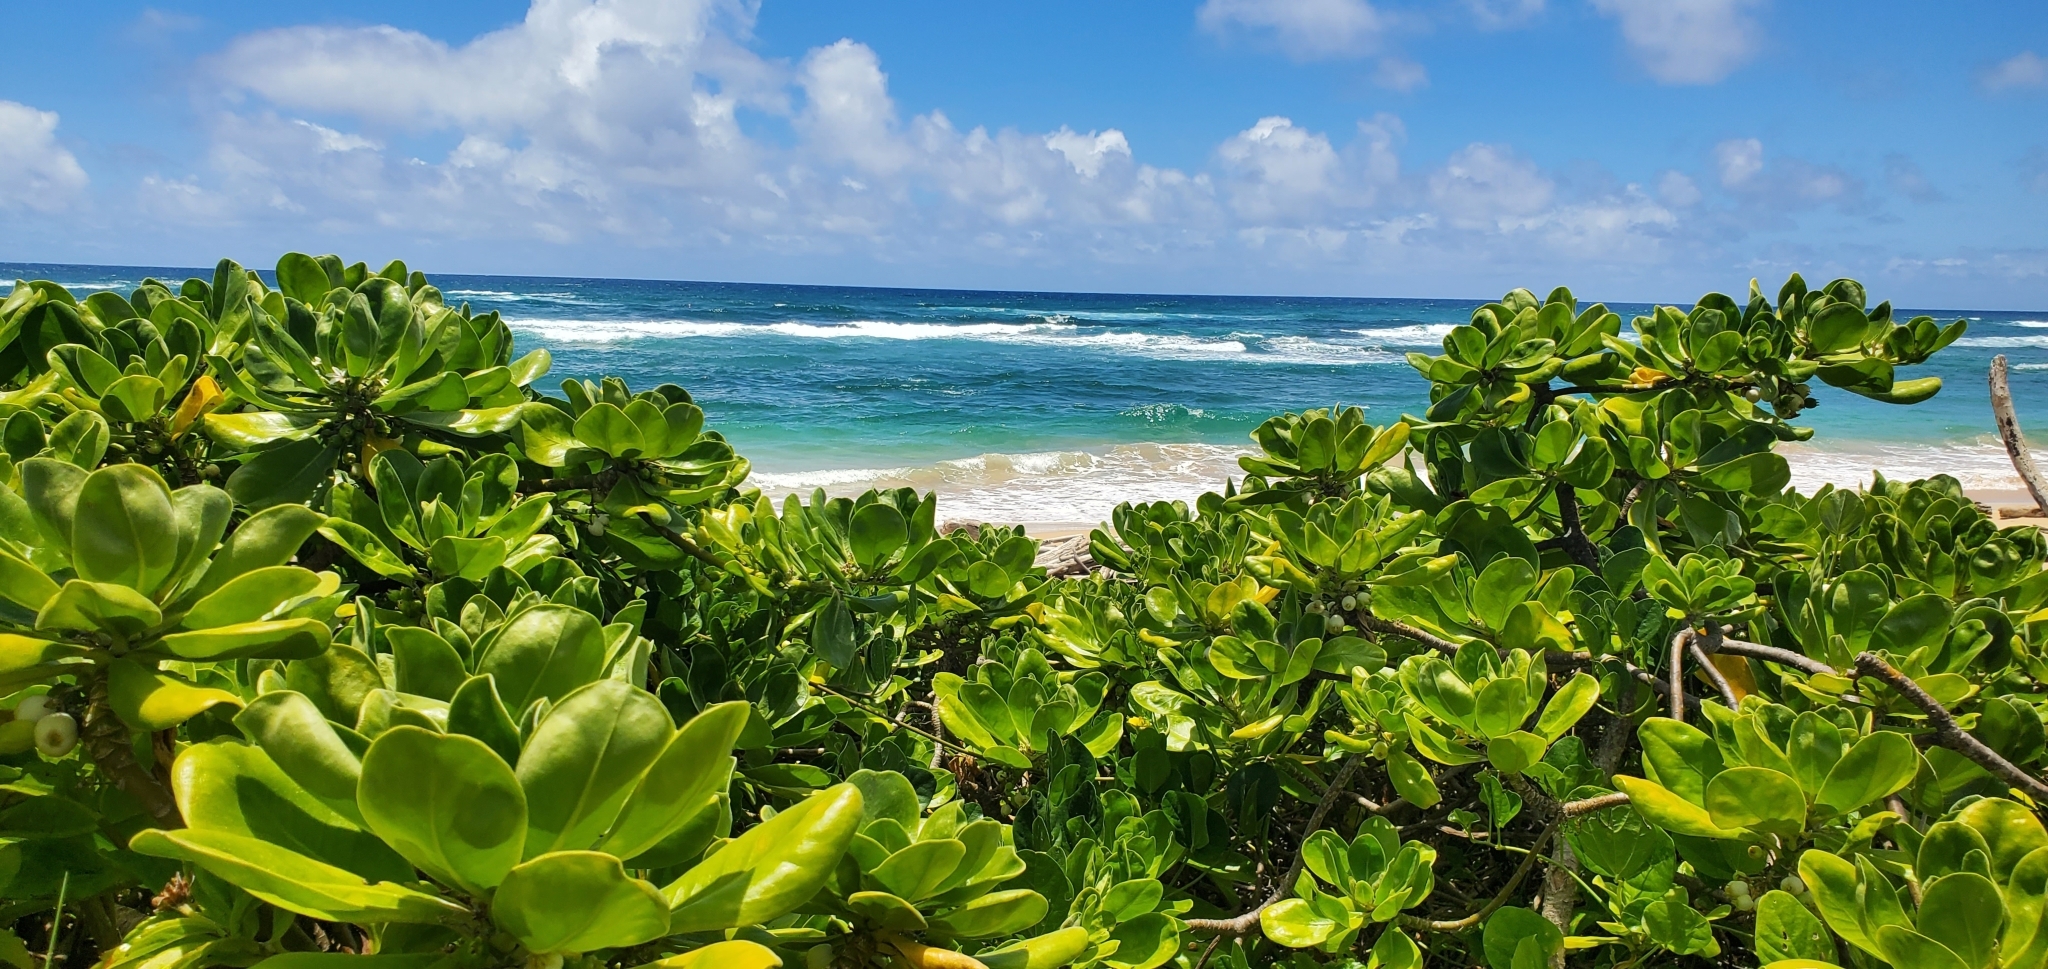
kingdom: Plantae
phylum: Tracheophyta
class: Magnoliopsida
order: Asterales
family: Goodeniaceae
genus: Scaevola
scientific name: Scaevola taccada
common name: Sea lettucetree
